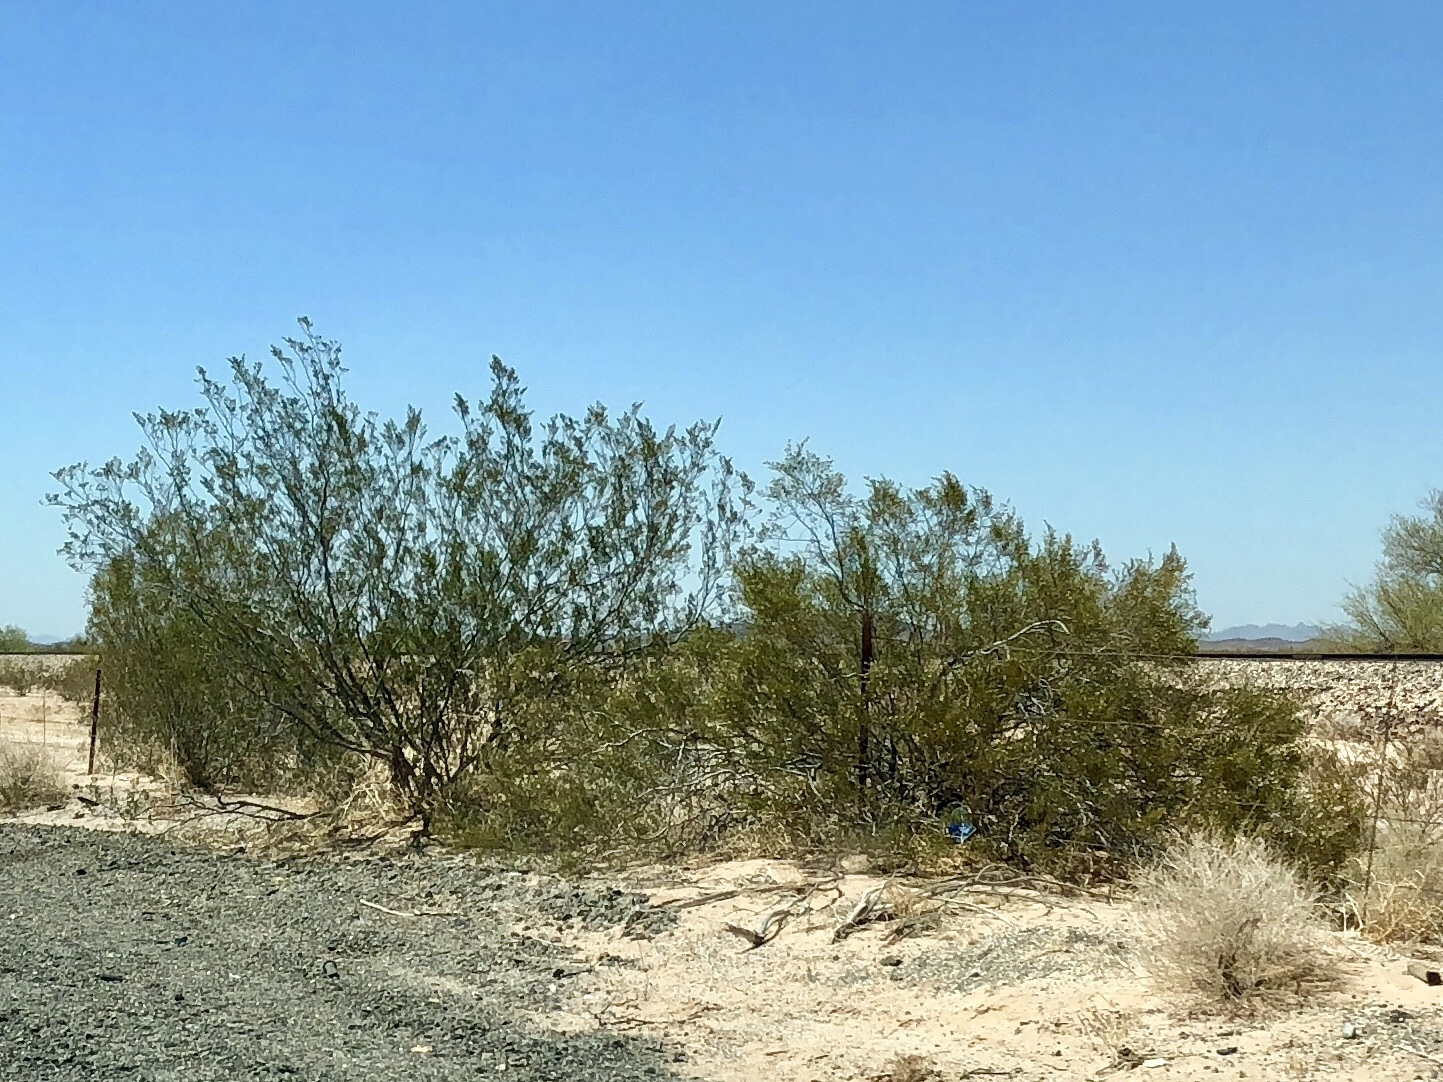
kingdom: Plantae
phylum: Tracheophyta
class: Magnoliopsida
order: Zygophyllales
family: Zygophyllaceae
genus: Larrea
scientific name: Larrea tridentata
